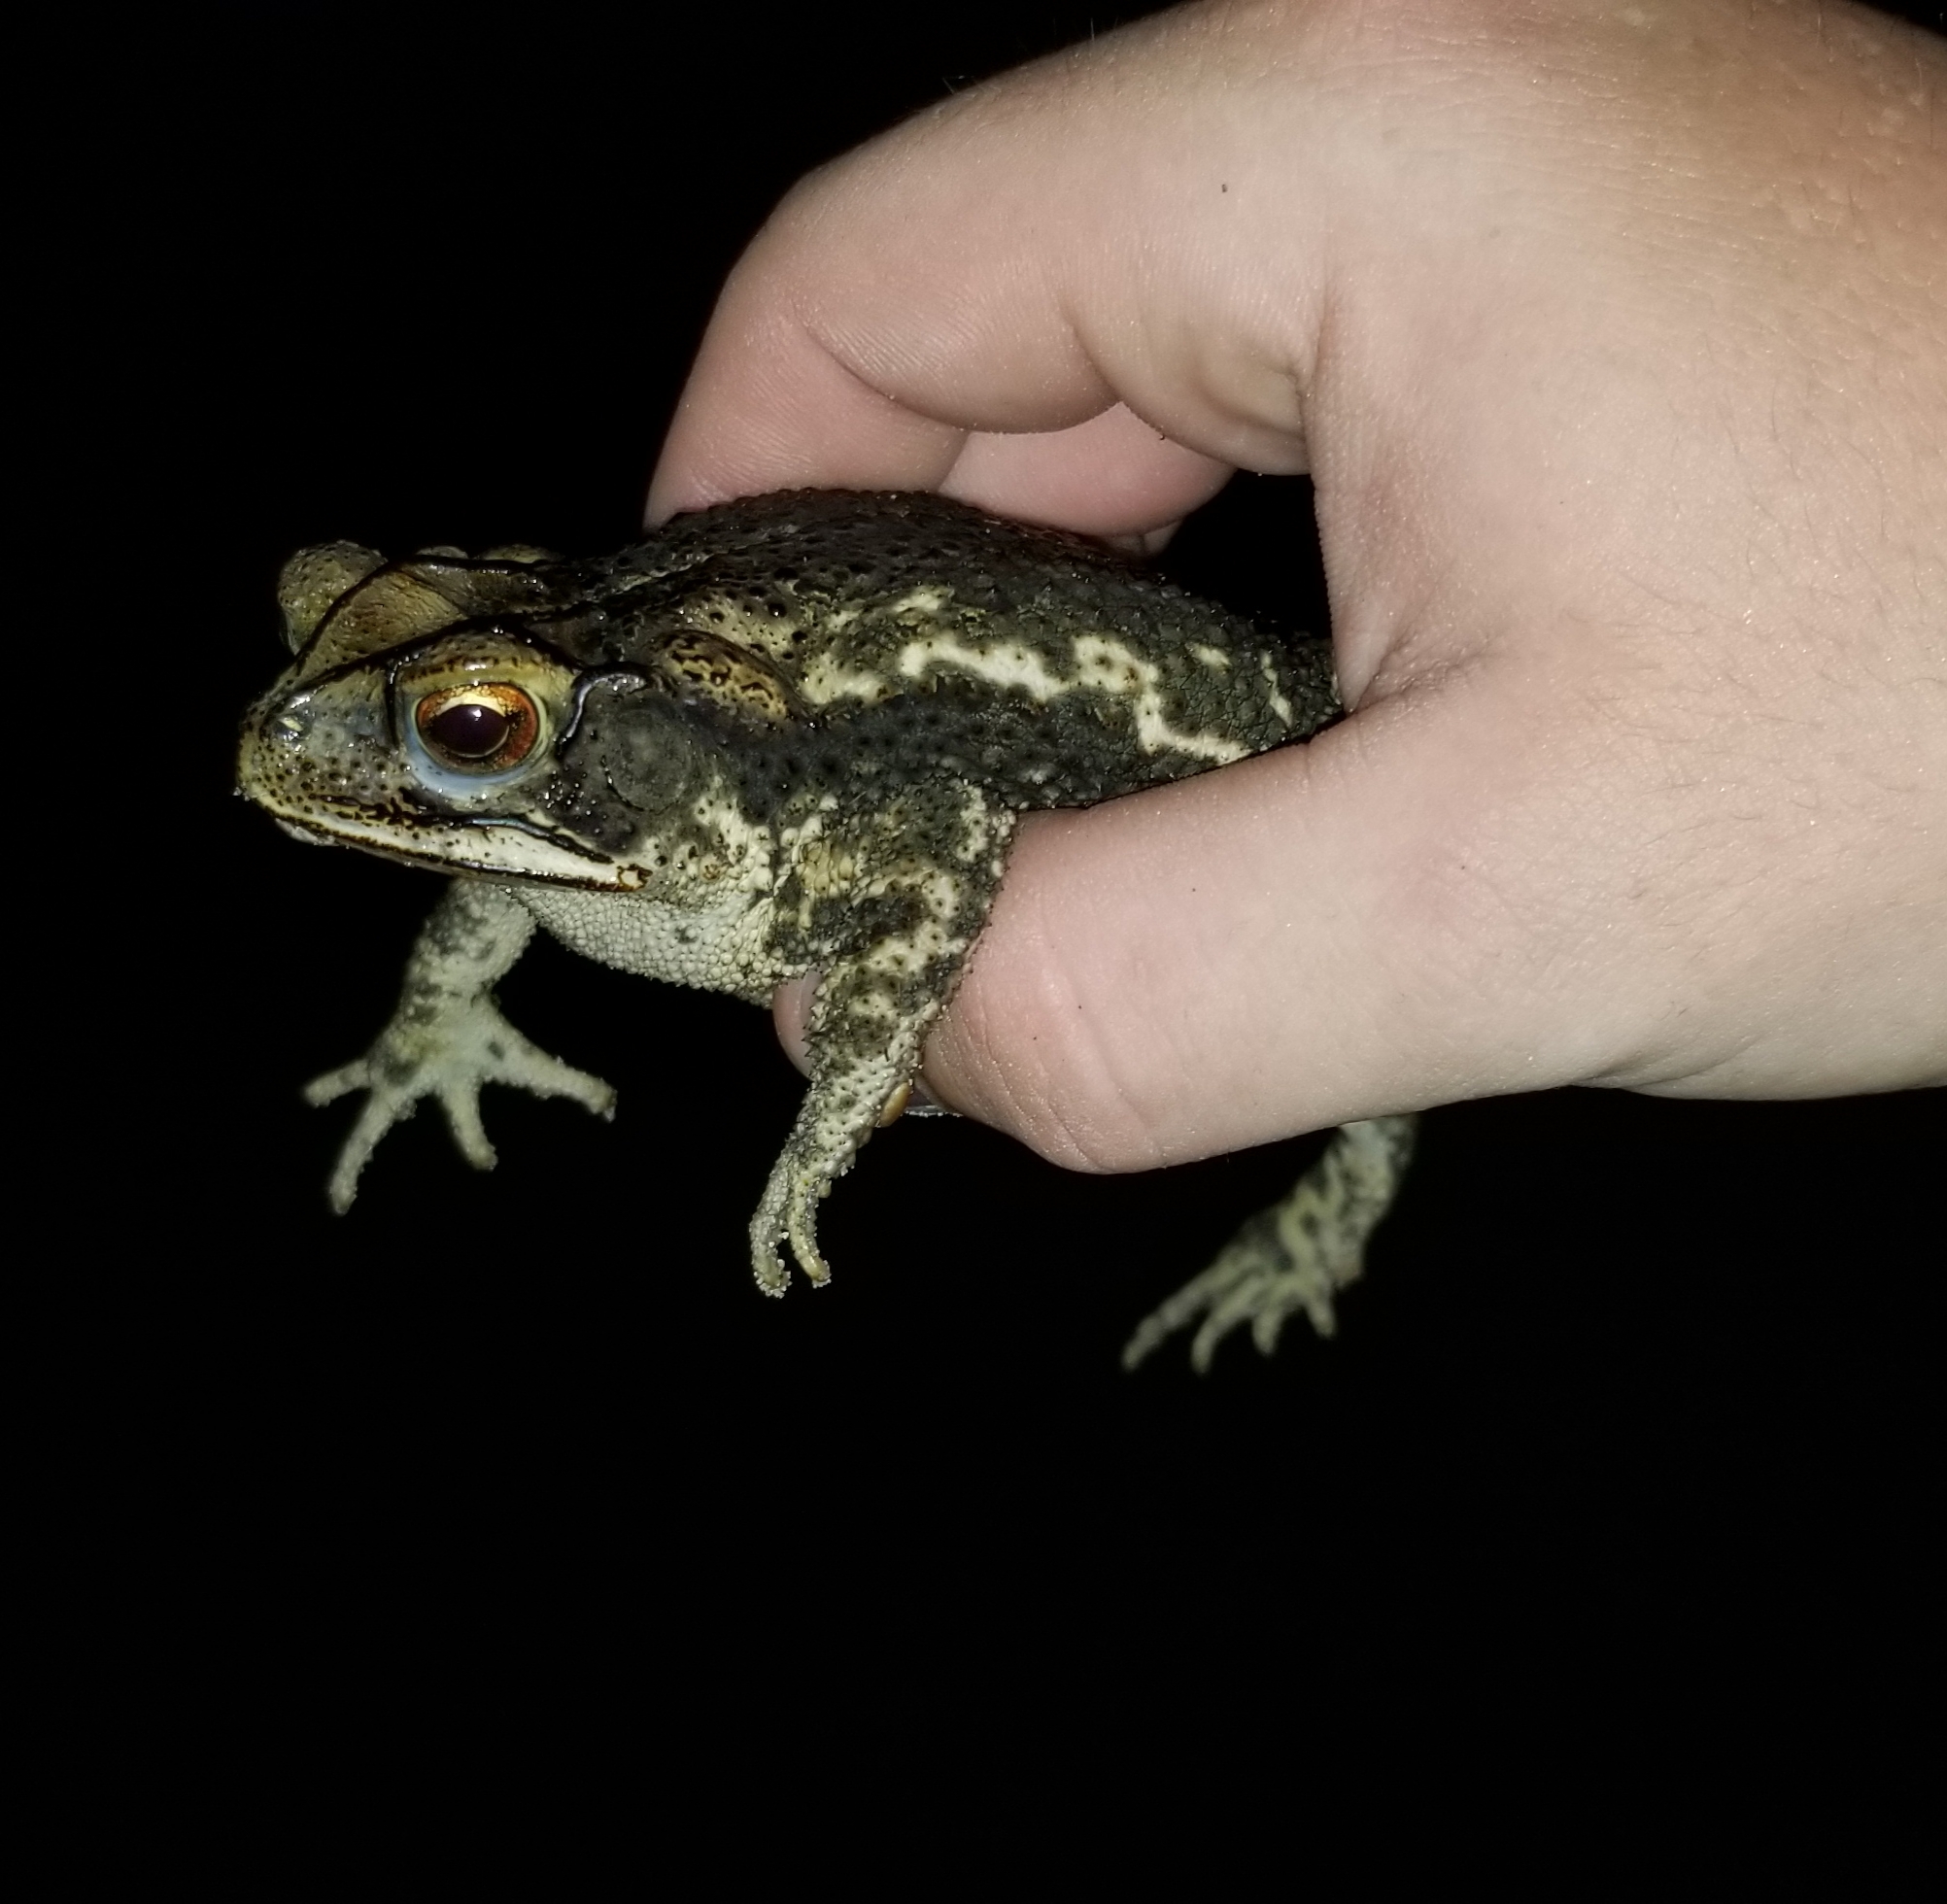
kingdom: Animalia
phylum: Chordata
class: Amphibia
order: Anura
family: Bufonidae
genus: Incilius
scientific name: Incilius nebulifer
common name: Gulf coast toad
